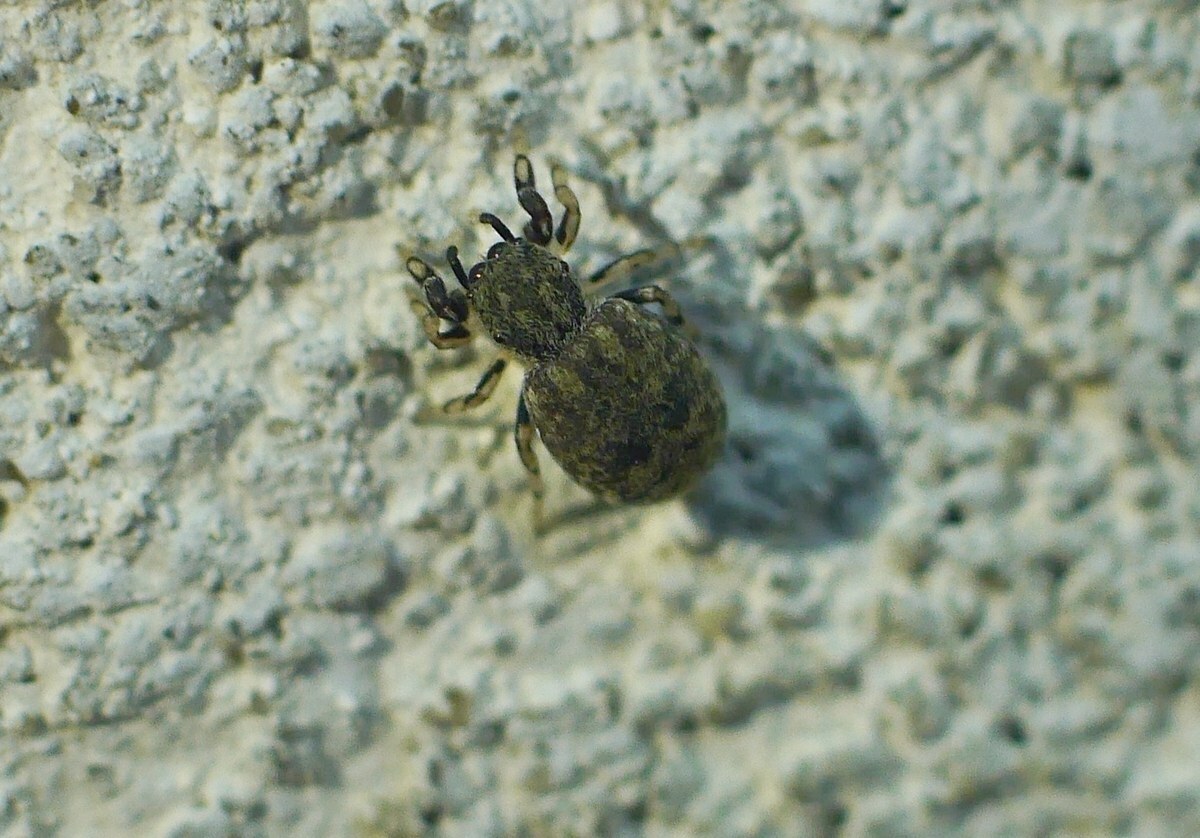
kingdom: Animalia
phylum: Arthropoda
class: Arachnida
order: Araneae
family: Salticidae
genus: Ballus
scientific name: Ballus chalybeius
